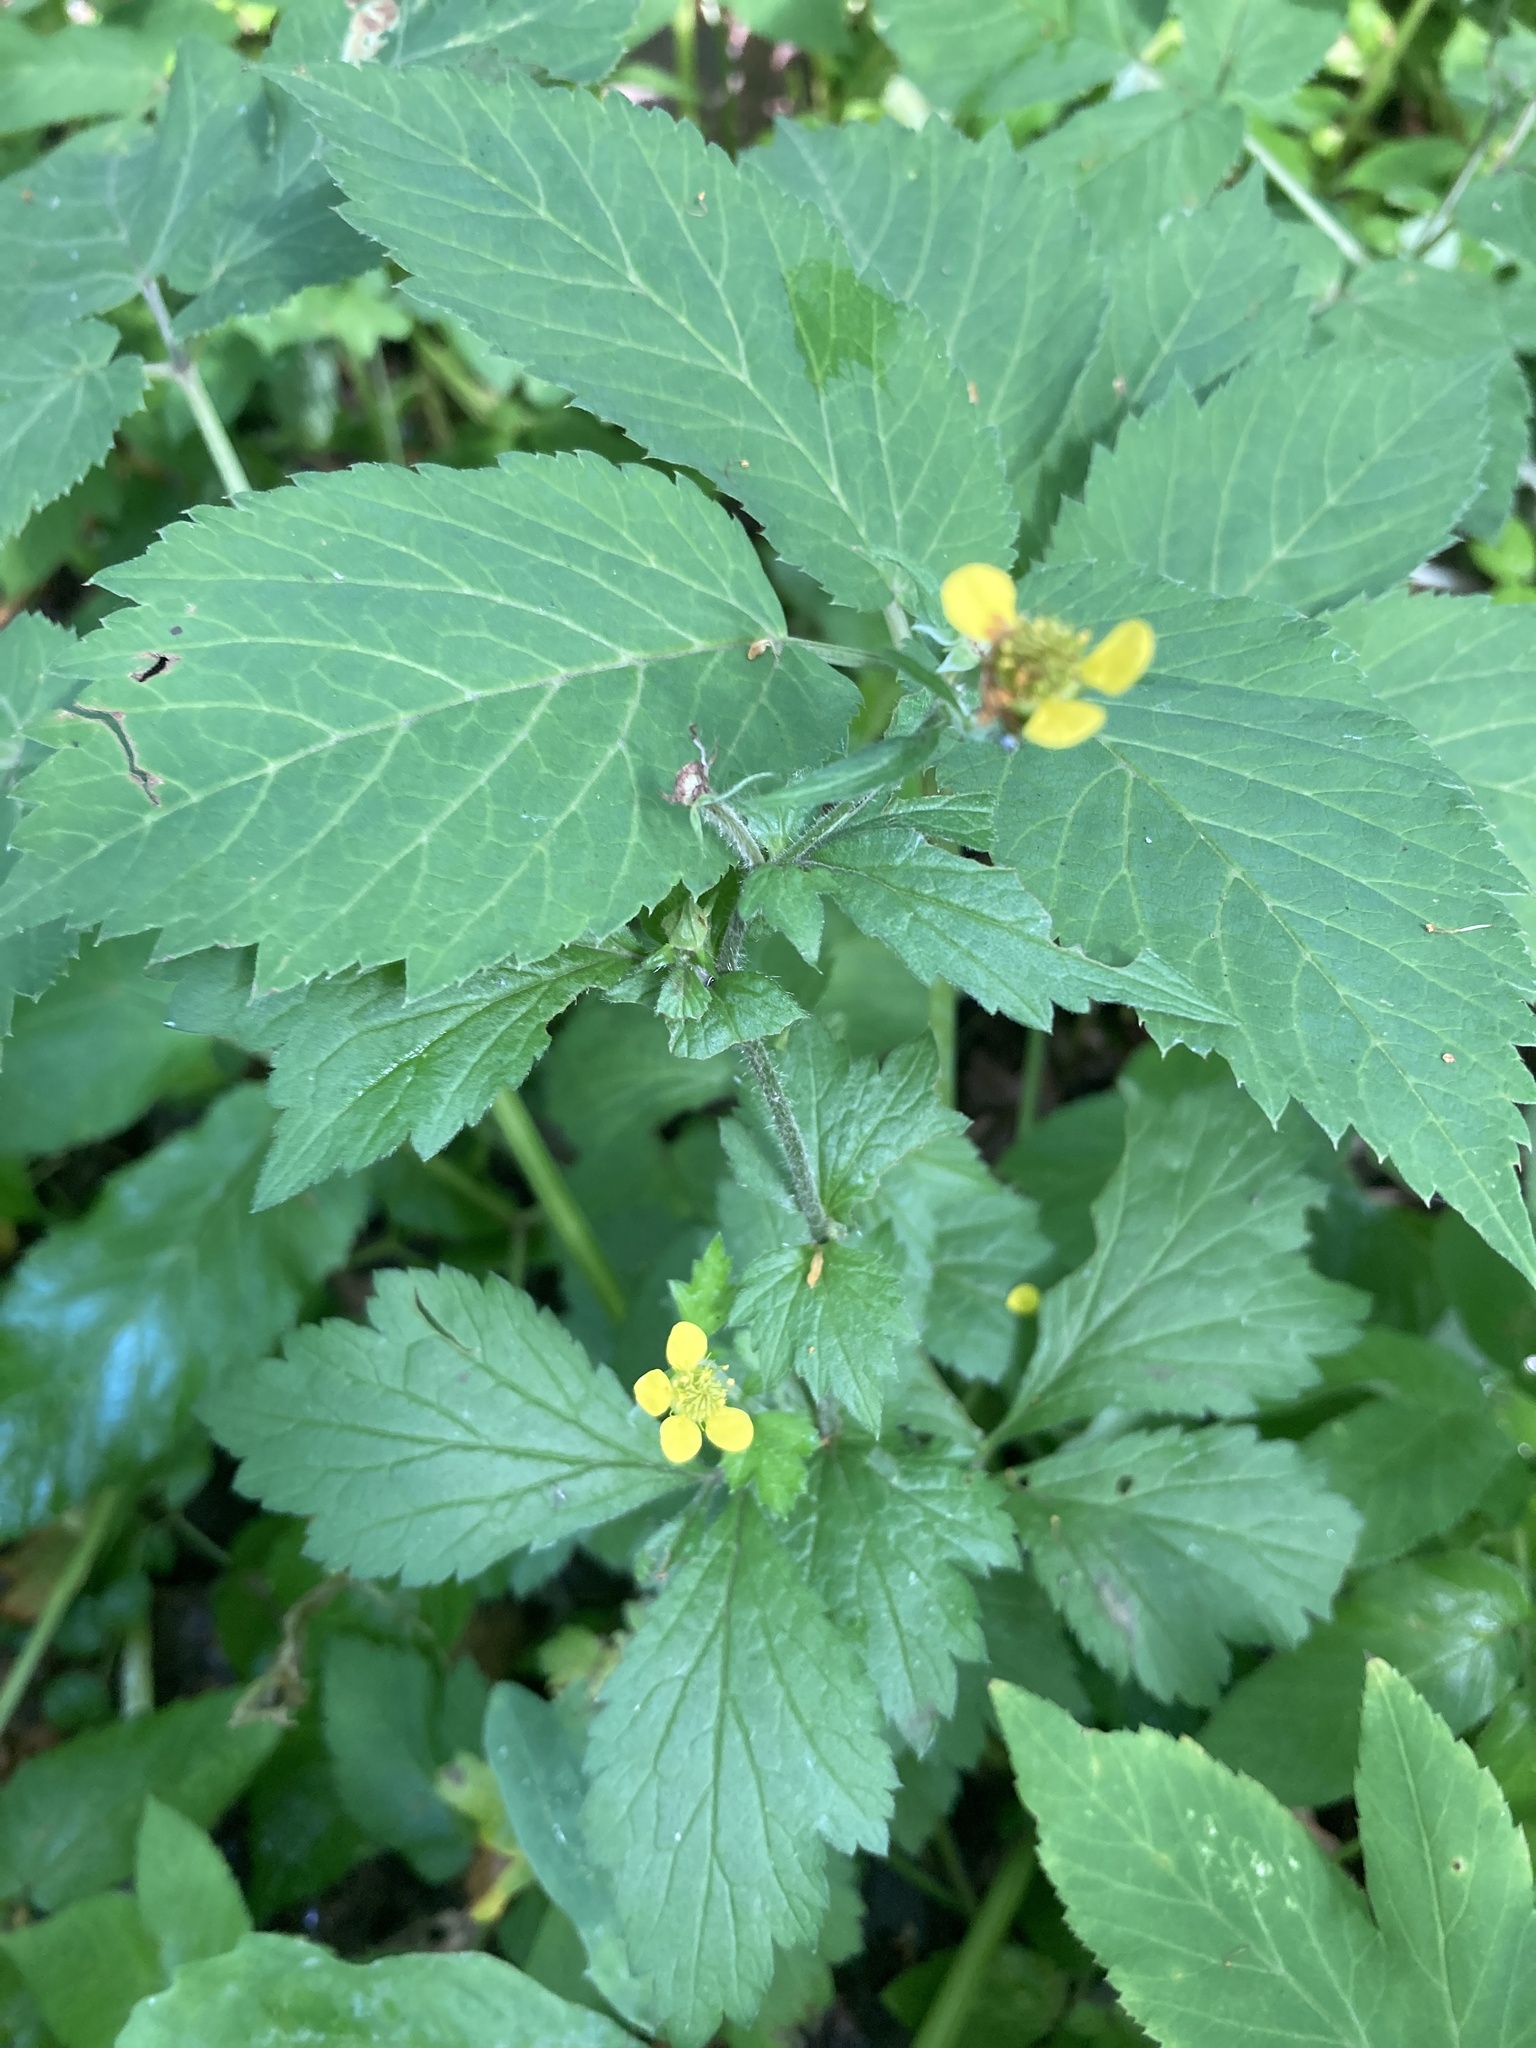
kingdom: Plantae
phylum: Tracheophyta
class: Magnoliopsida
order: Rosales
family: Rosaceae
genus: Geum
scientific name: Geum urbanum
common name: Wood avens
